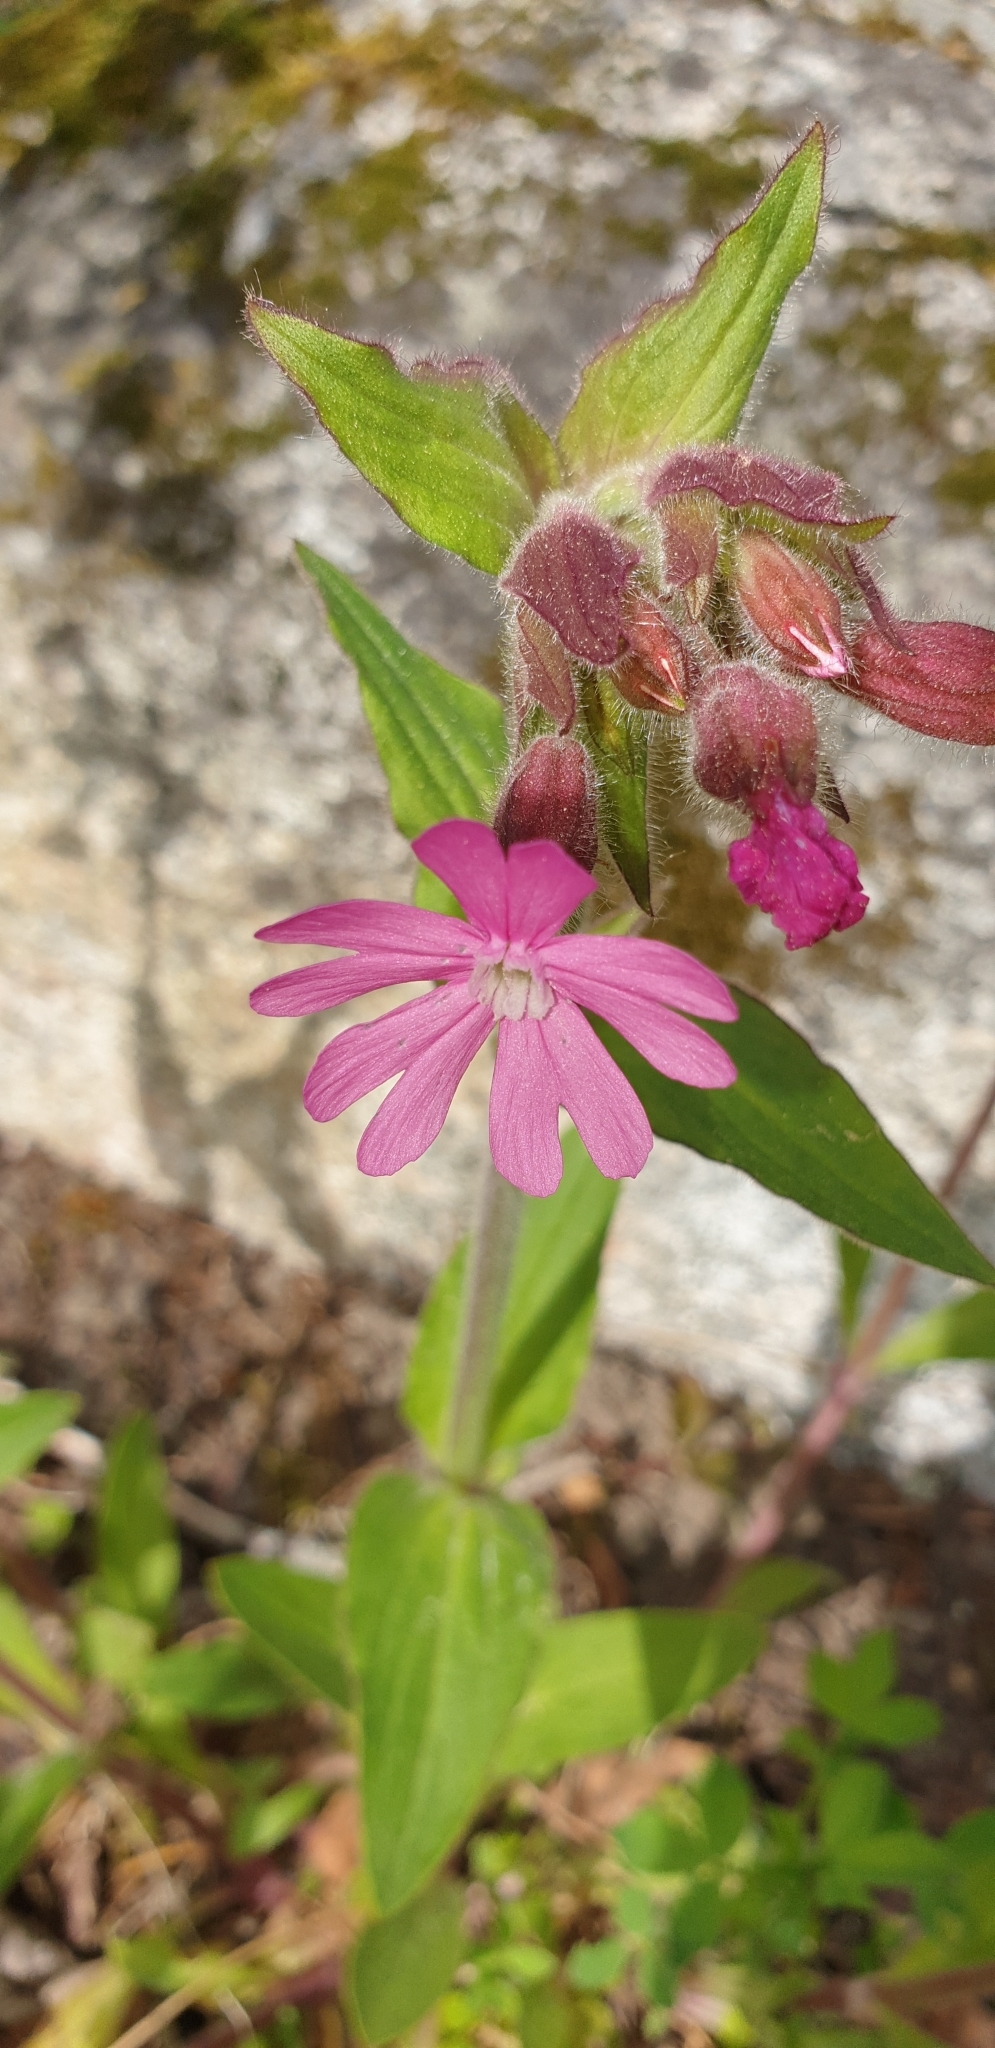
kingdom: Plantae
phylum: Tracheophyta
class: Magnoliopsida
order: Caryophyllales
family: Caryophyllaceae
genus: Silene
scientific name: Silene dioica
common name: Red campion
